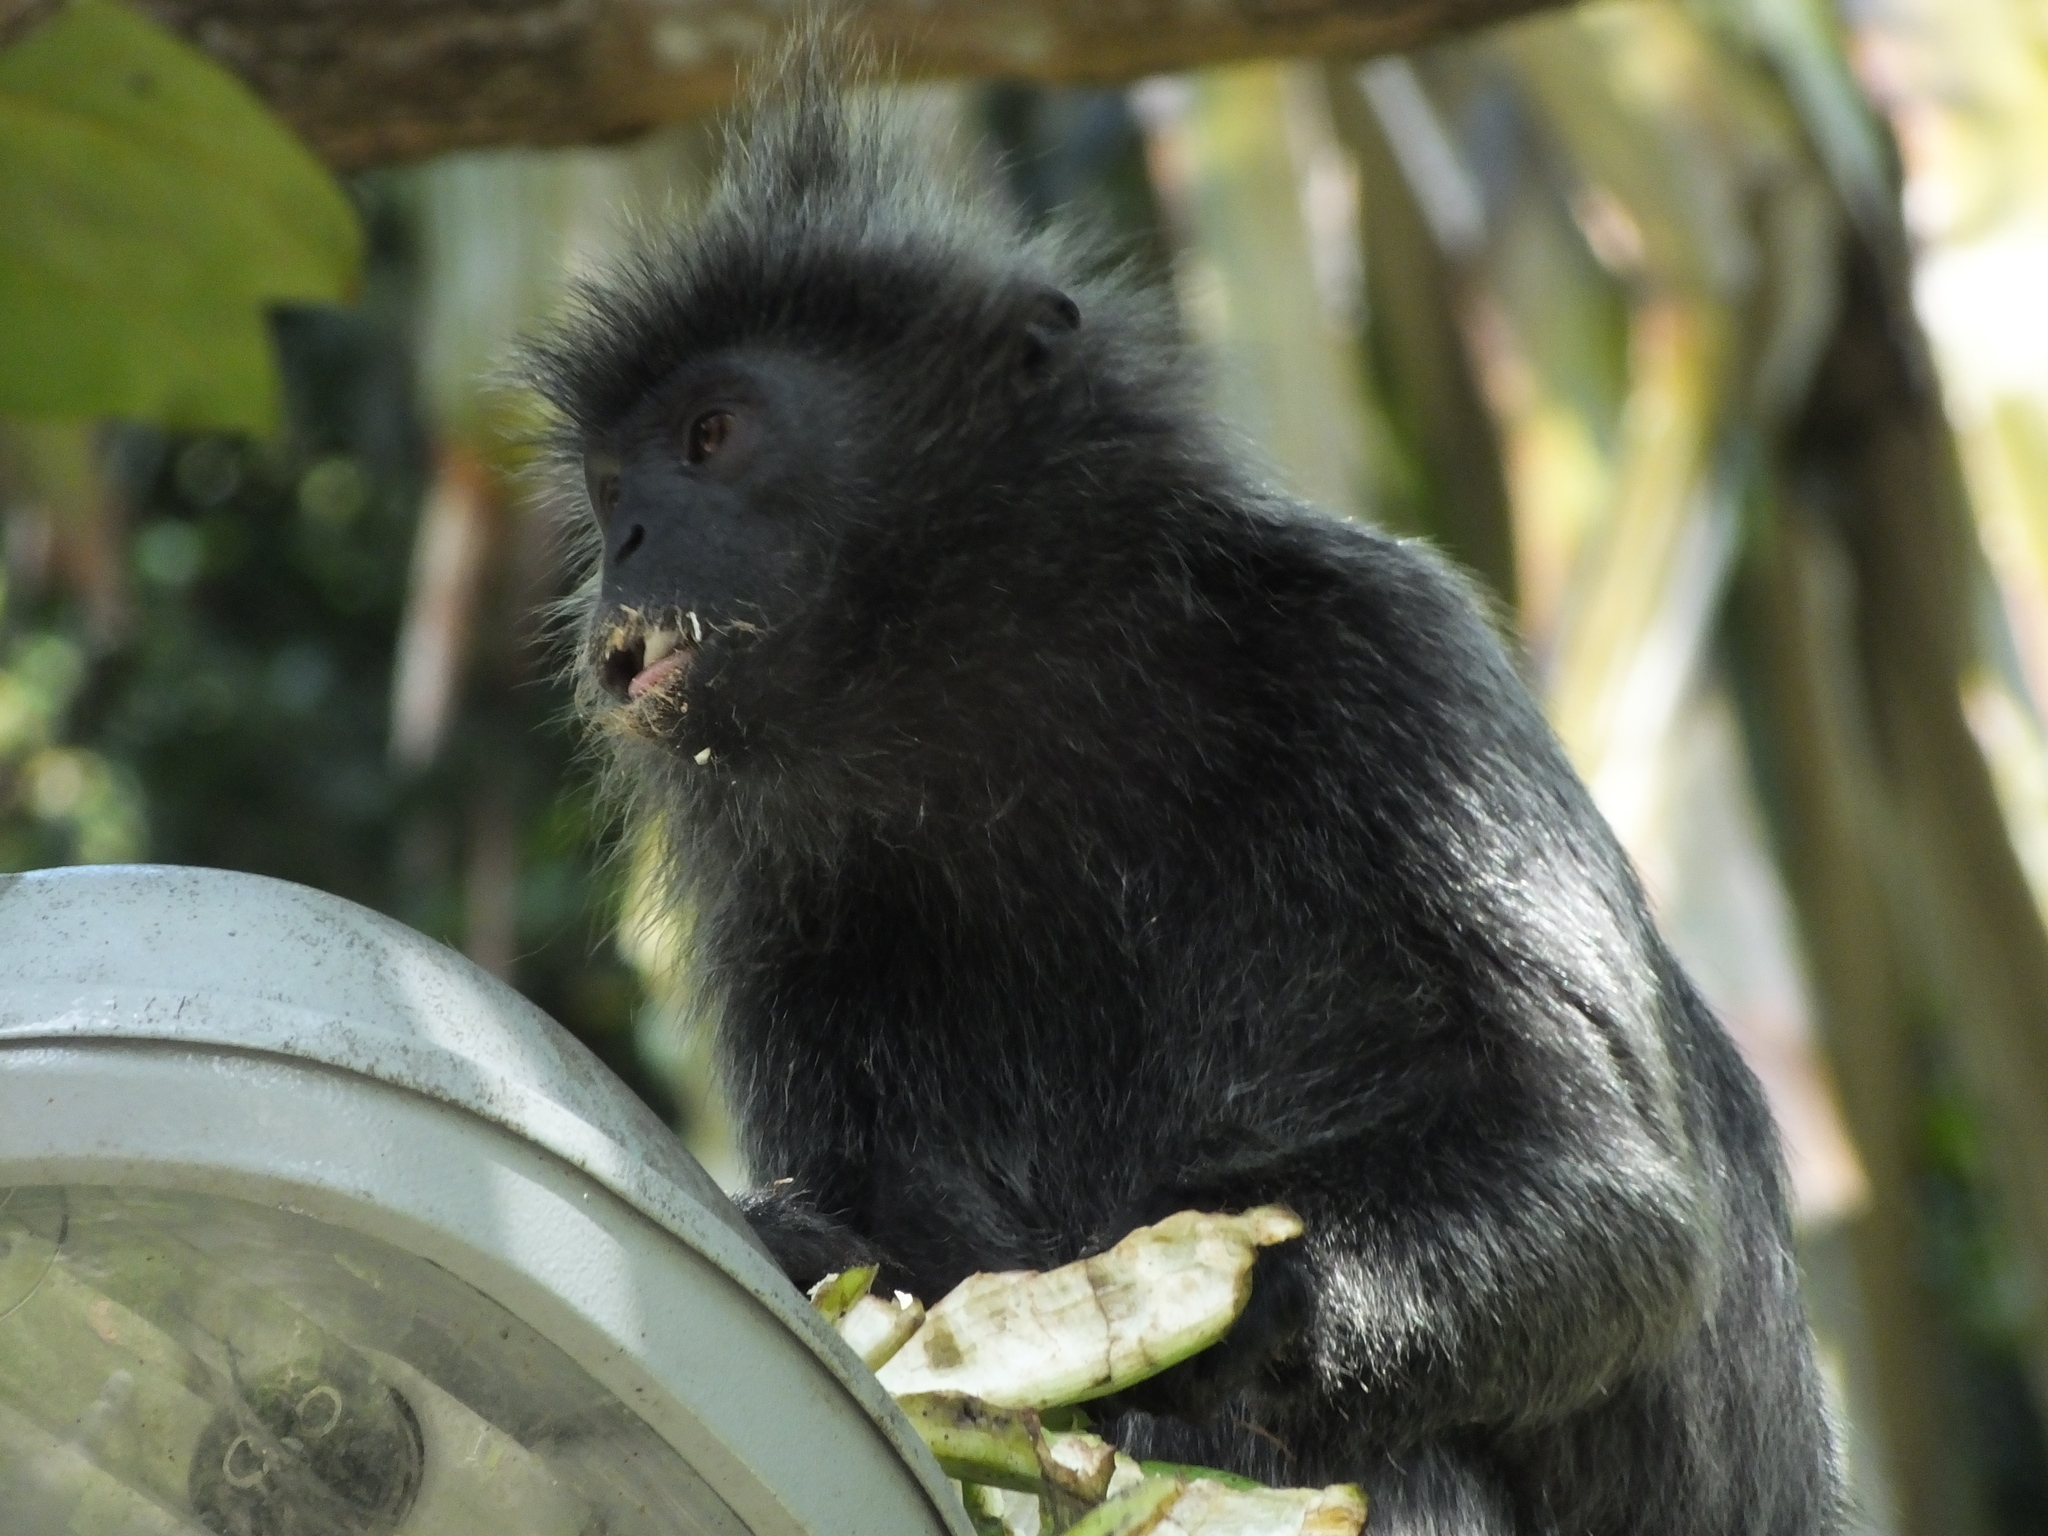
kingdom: Animalia
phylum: Chordata
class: Mammalia
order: Primates
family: Cercopithecidae
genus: Trachypithecus
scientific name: Trachypithecus selangorensis
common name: Selangor silvery langur
